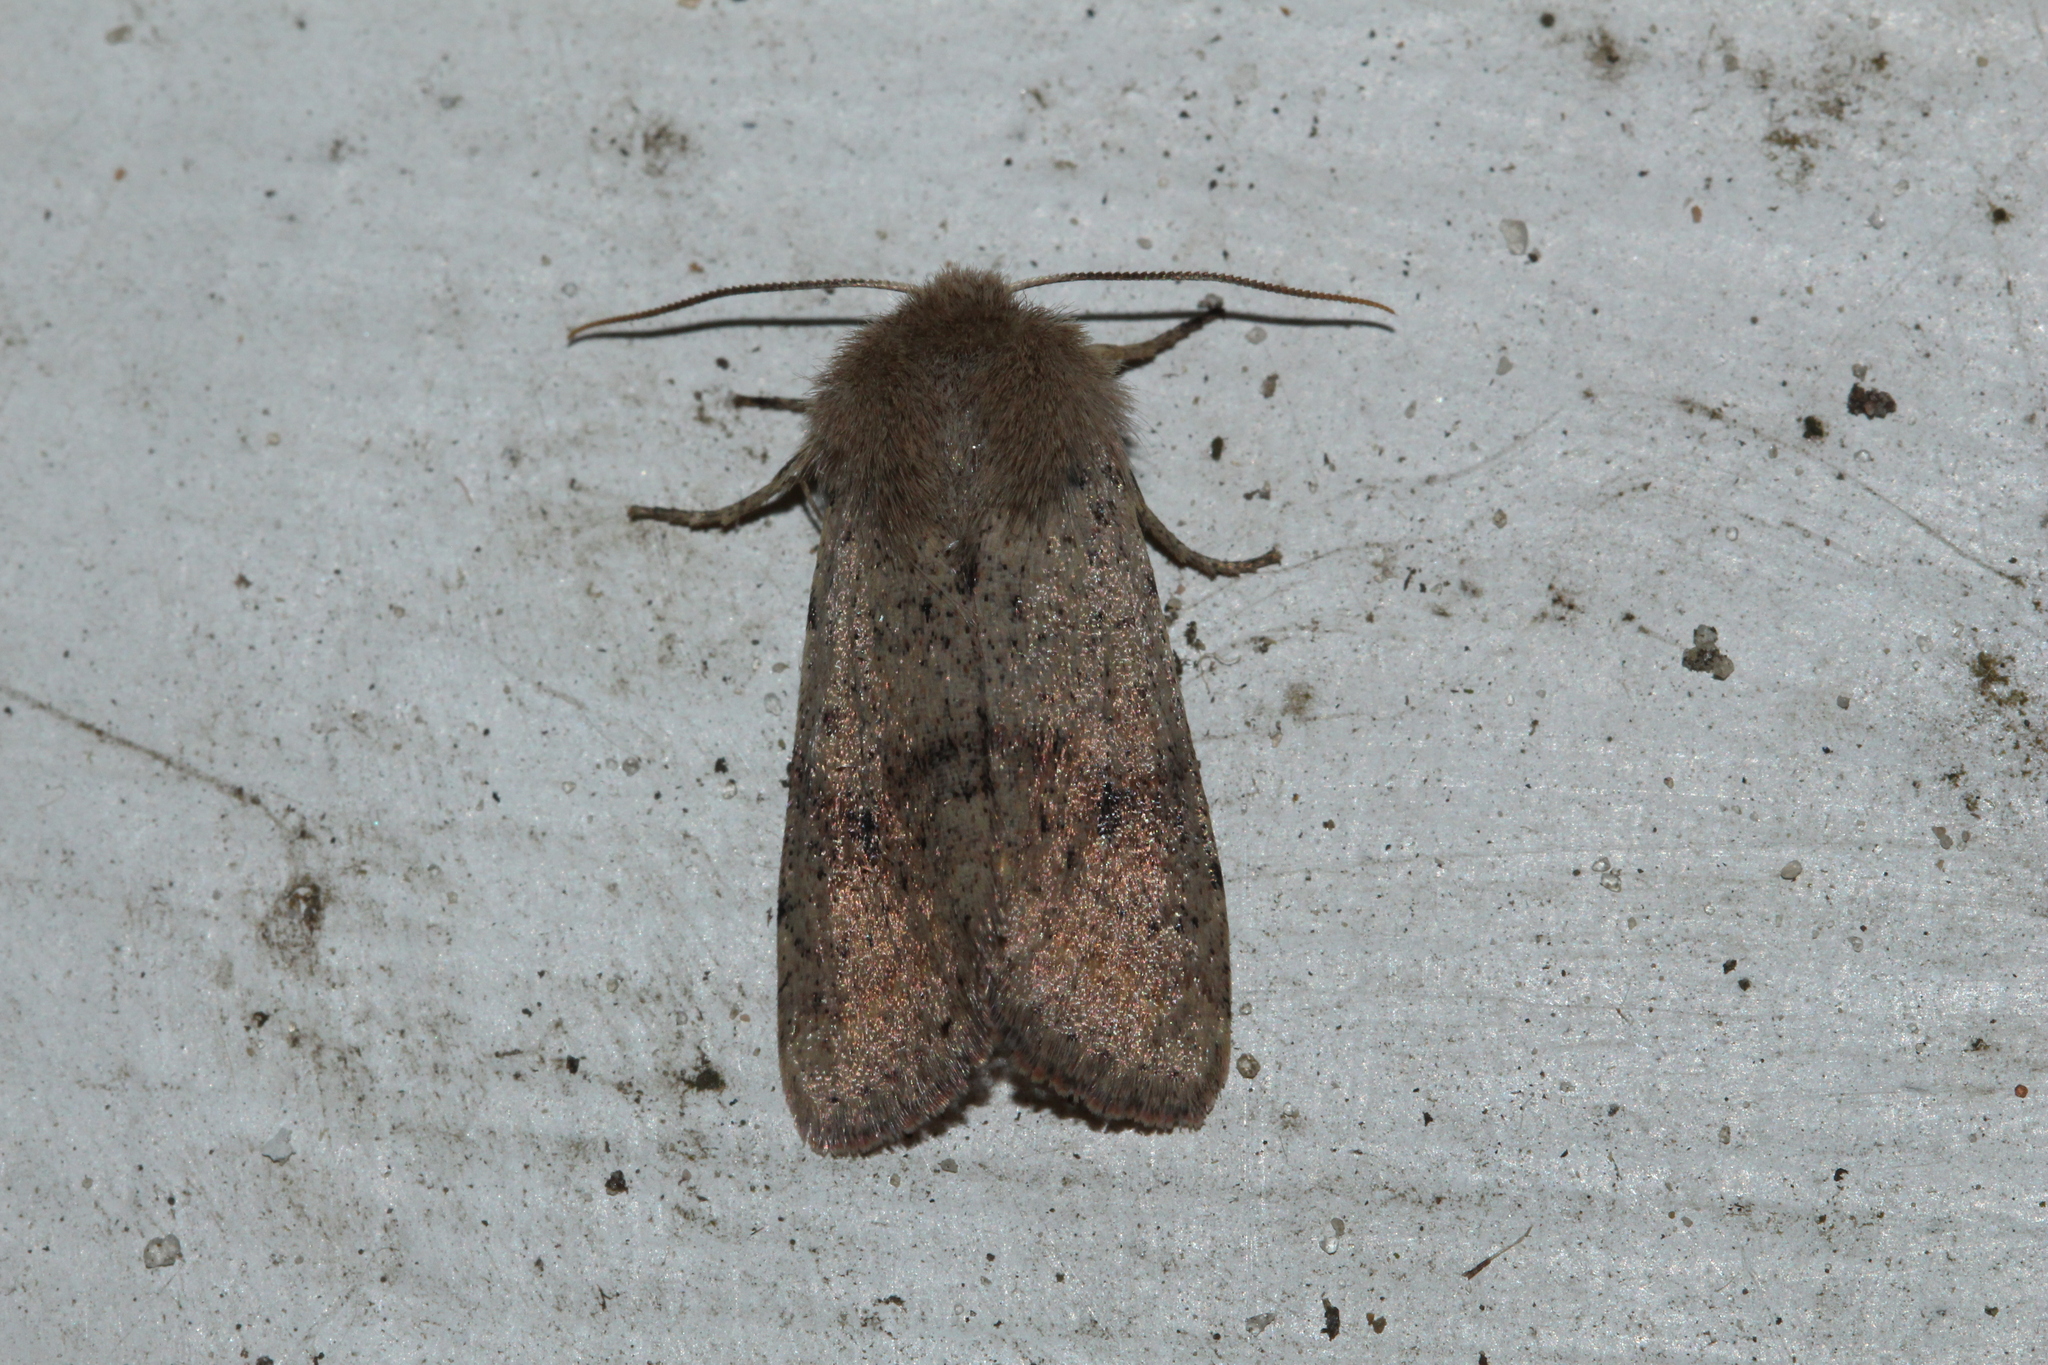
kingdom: Animalia
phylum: Arthropoda
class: Insecta
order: Lepidoptera
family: Noctuidae
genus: Orthosia
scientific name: Orthosia cruda
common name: Small quaker
